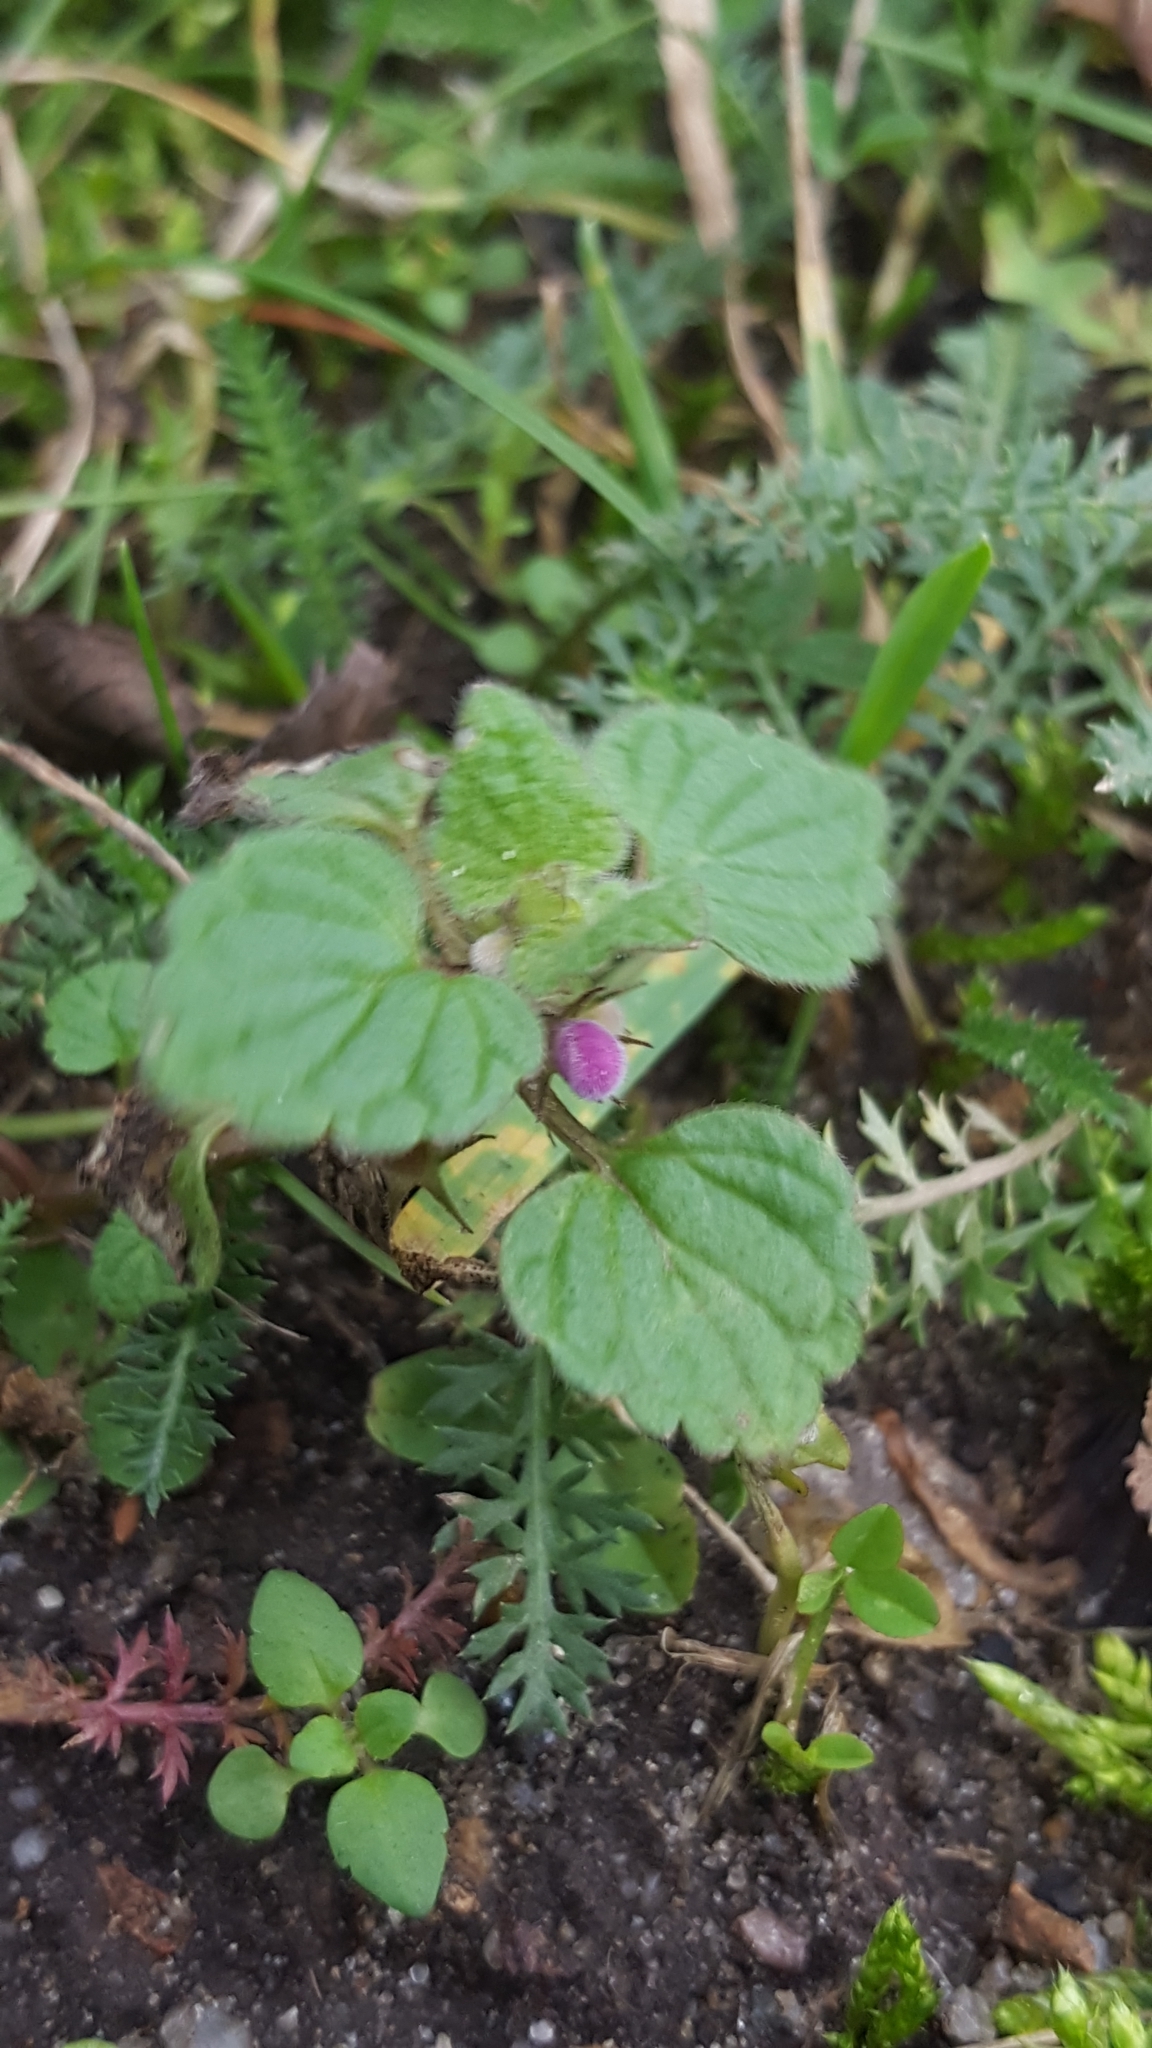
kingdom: Plantae
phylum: Tracheophyta
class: Magnoliopsida
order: Lamiales
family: Lamiaceae
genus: Lamium
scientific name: Lamium purpureum
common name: Red dead-nettle
